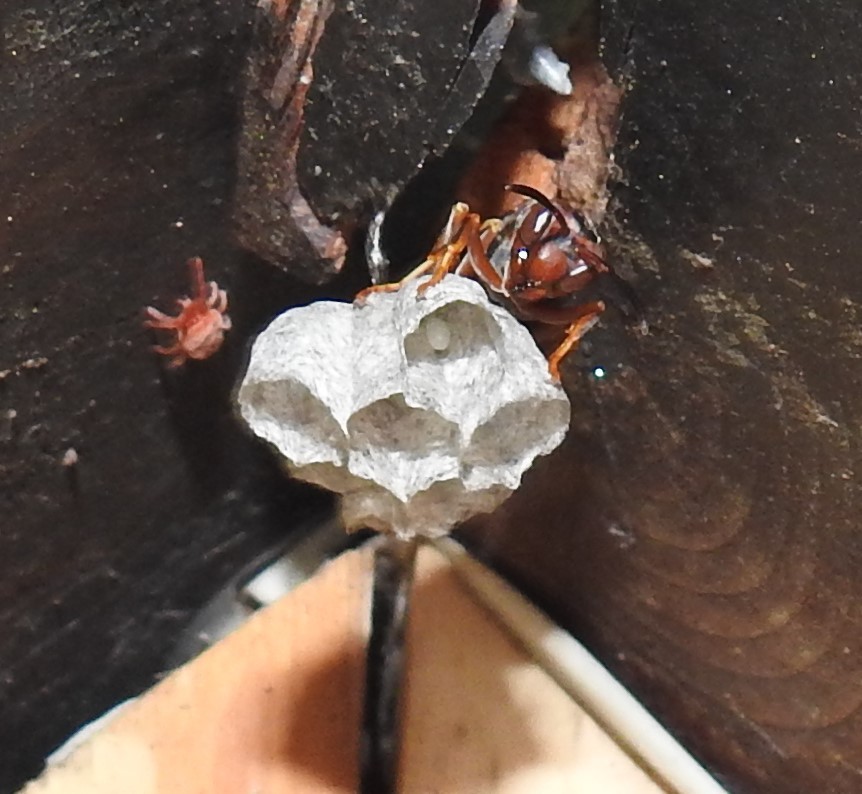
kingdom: Animalia
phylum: Arthropoda
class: Insecta
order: Hymenoptera
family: Vespidae
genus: Fuscopolistes
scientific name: Fuscopolistes
